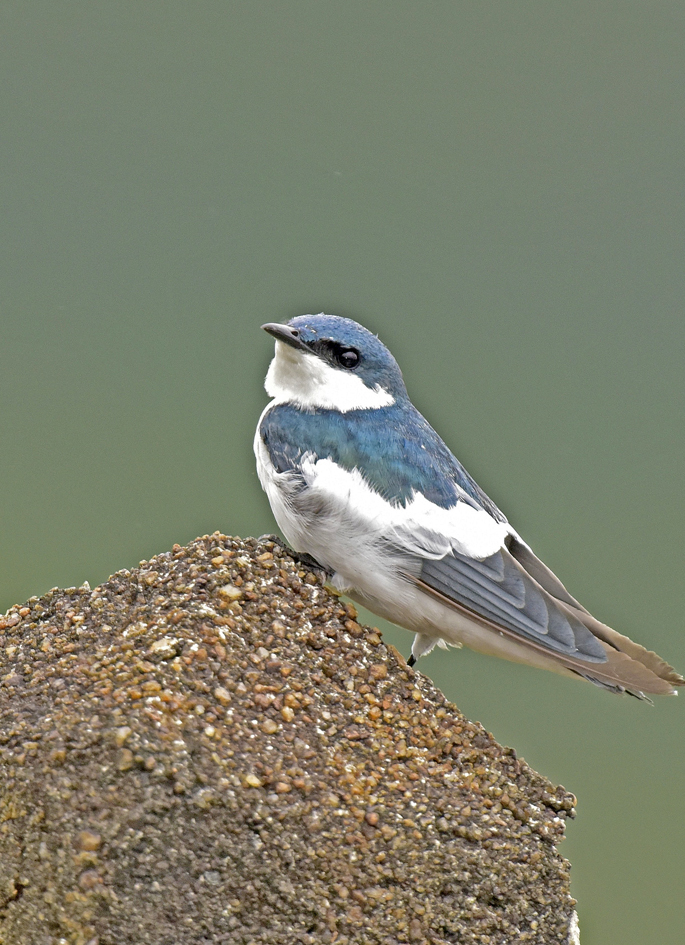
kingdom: Animalia
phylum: Chordata
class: Aves
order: Passeriformes
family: Hirundinidae
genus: Tachycineta
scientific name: Tachycineta albiventer
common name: White-winged swallow
